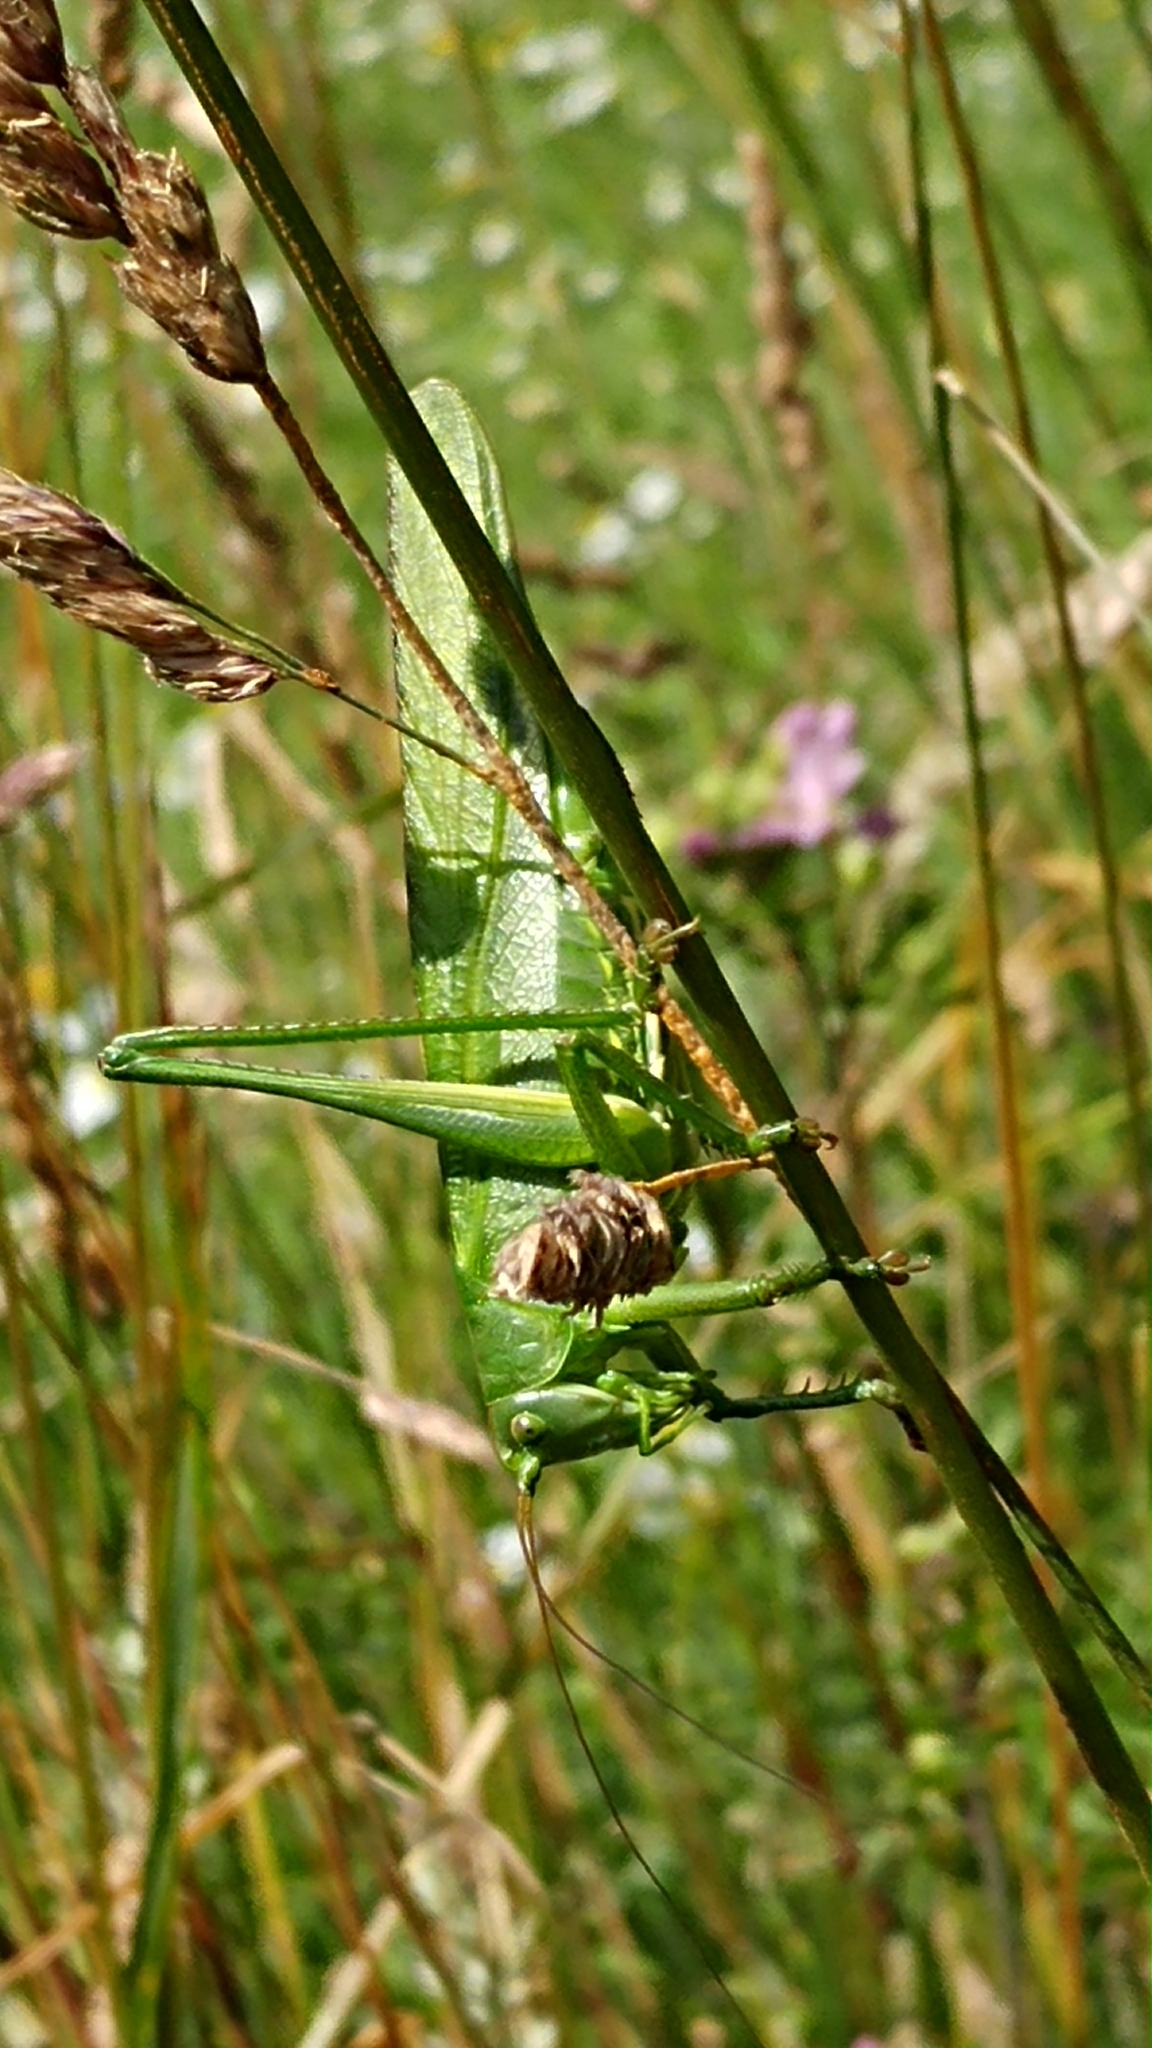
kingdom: Animalia
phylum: Arthropoda
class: Insecta
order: Orthoptera
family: Tettigoniidae
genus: Tettigonia
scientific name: Tettigonia viridissima
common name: Great green bush-cricket
